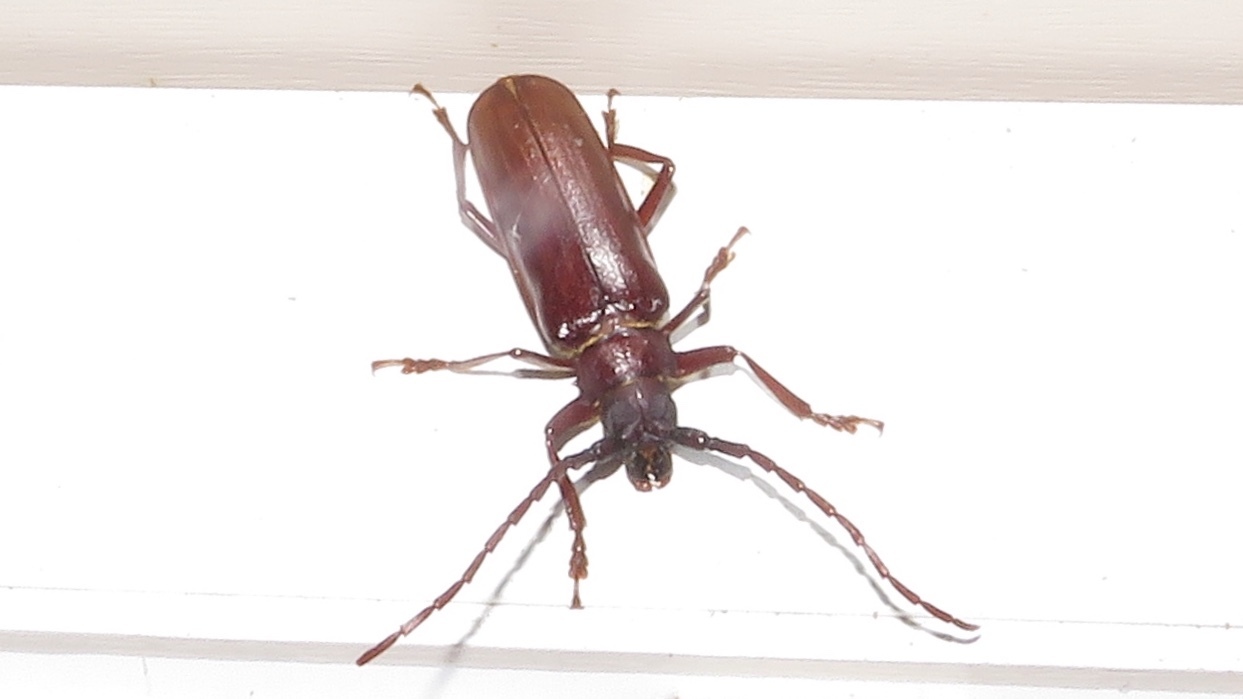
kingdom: Animalia
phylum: Arthropoda
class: Insecta
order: Coleoptera
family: Cerambycidae
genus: Orthosoma
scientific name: Orthosoma brunneum
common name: Brown prionid beetle
